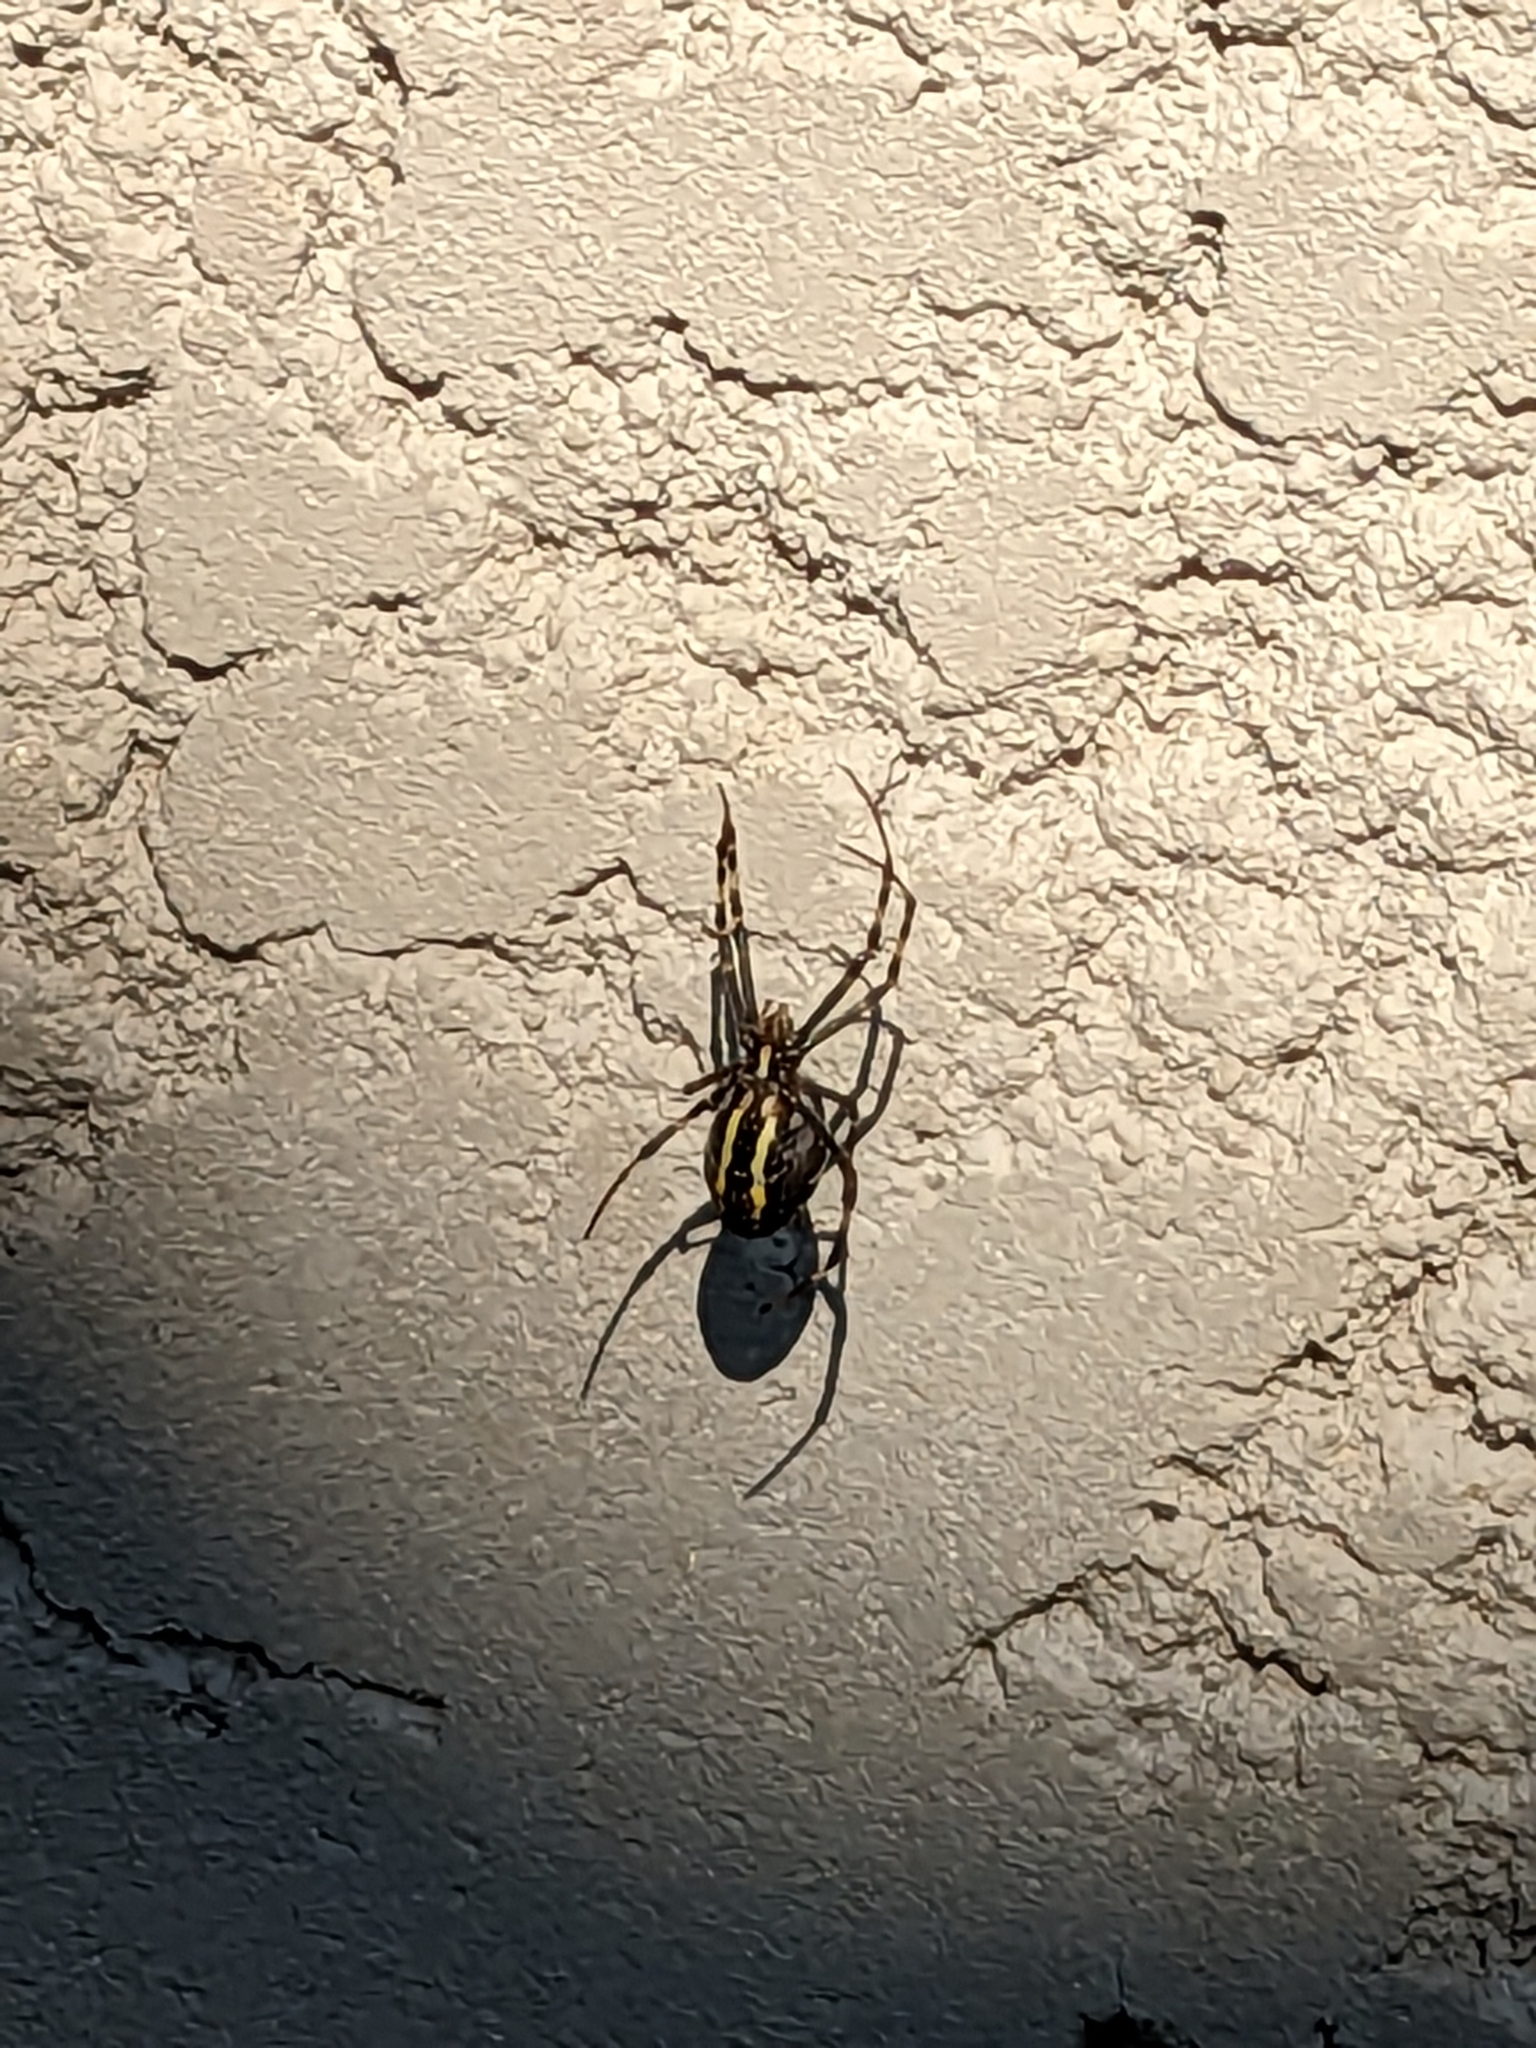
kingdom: Animalia
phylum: Arthropoda
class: Arachnida
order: Araneae
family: Araneidae
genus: Argiope
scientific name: Argiope bruennichi
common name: Wasp spider
